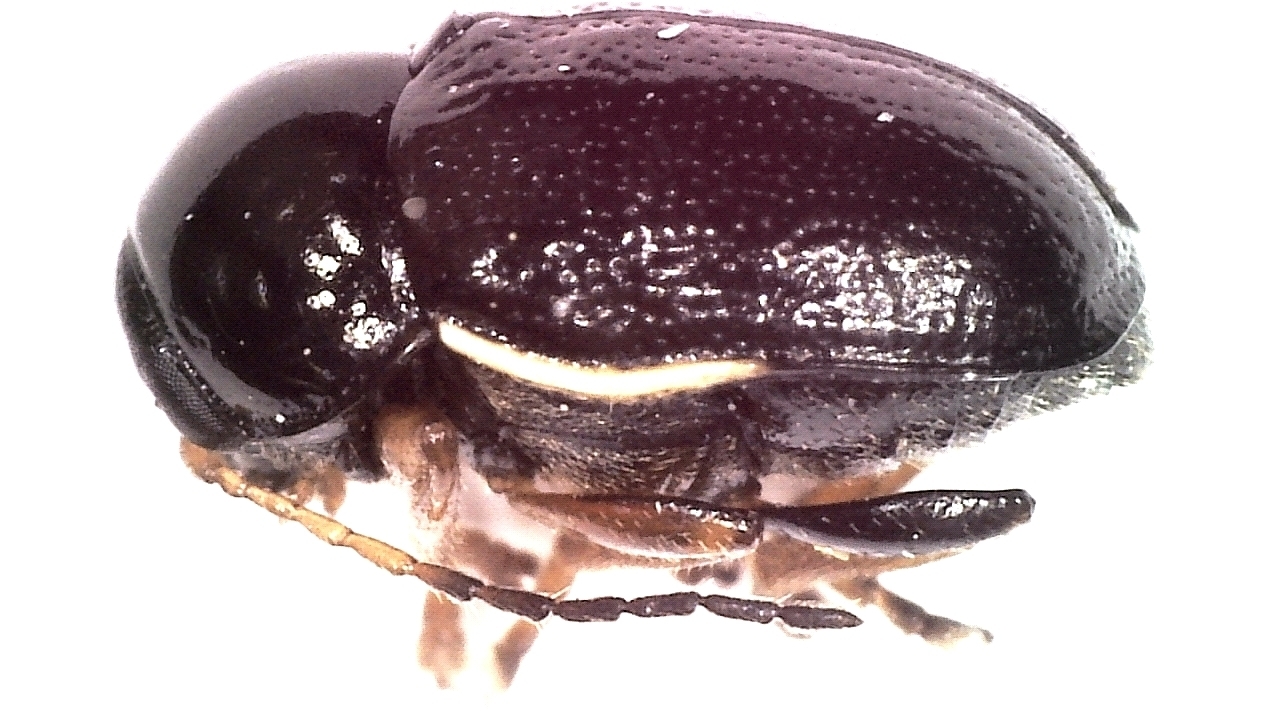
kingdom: Animalia
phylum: Arthropoda
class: Insecta
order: Coleoptera
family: Chrysomelidae
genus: Cryptocephalus
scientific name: Cryptocephalus bameuli
